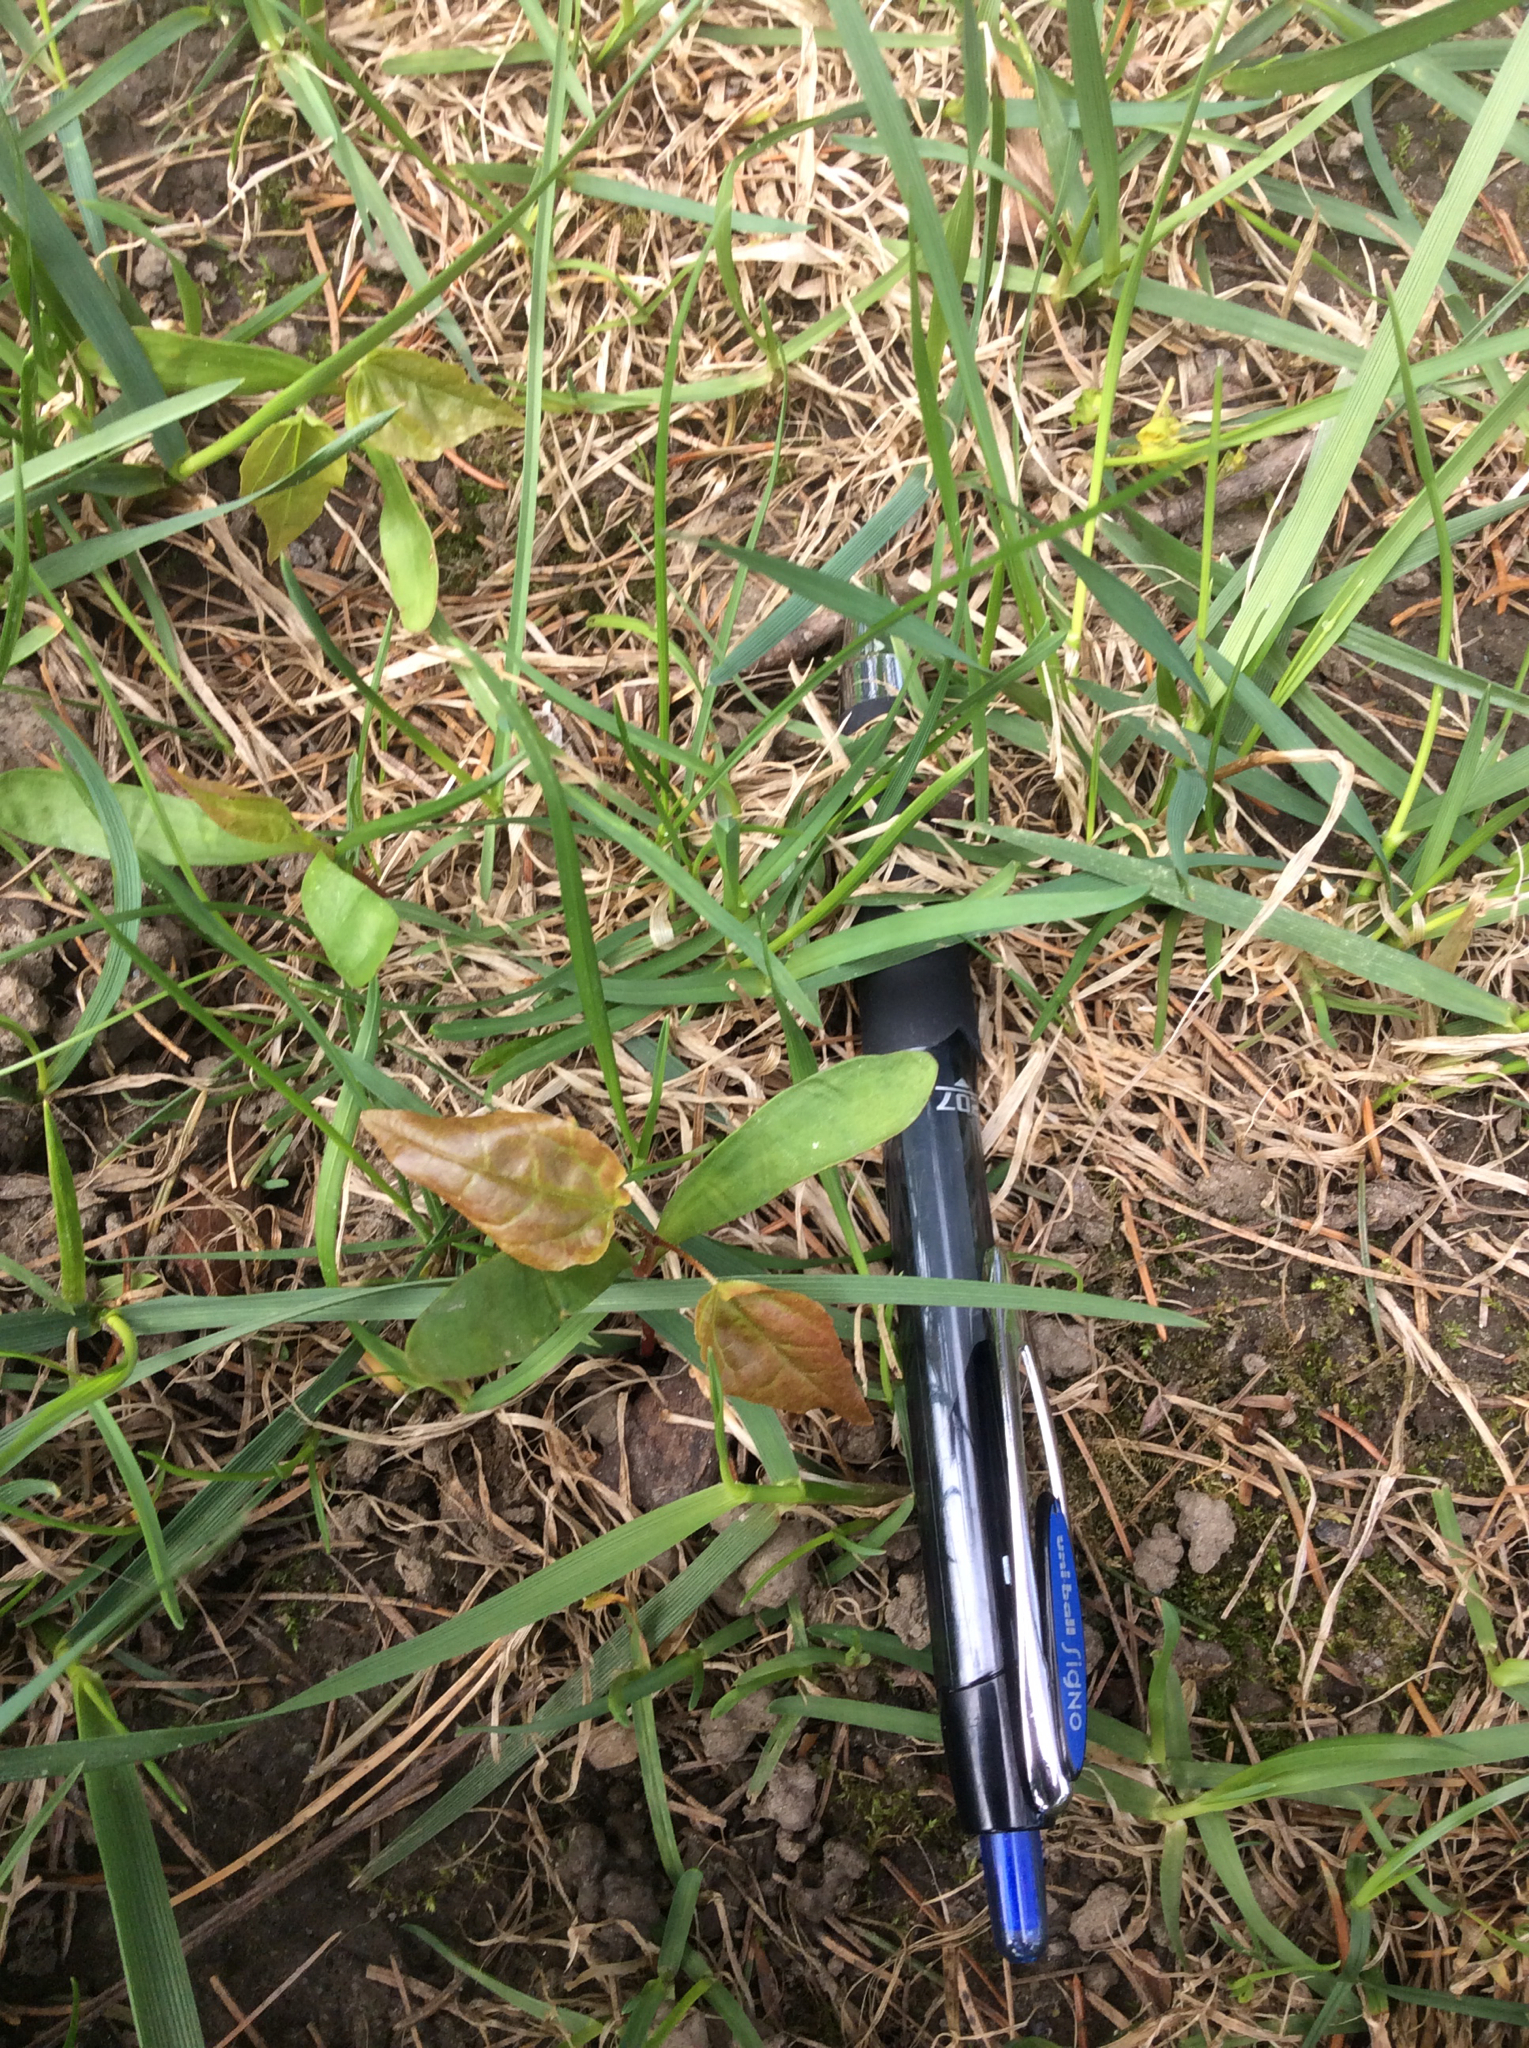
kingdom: Plantae
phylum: Tracheophyta
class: Magnoliopsida
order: Sapindales
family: Sapindaceae
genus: Acer
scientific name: Acer platanoides
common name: Norway maple
